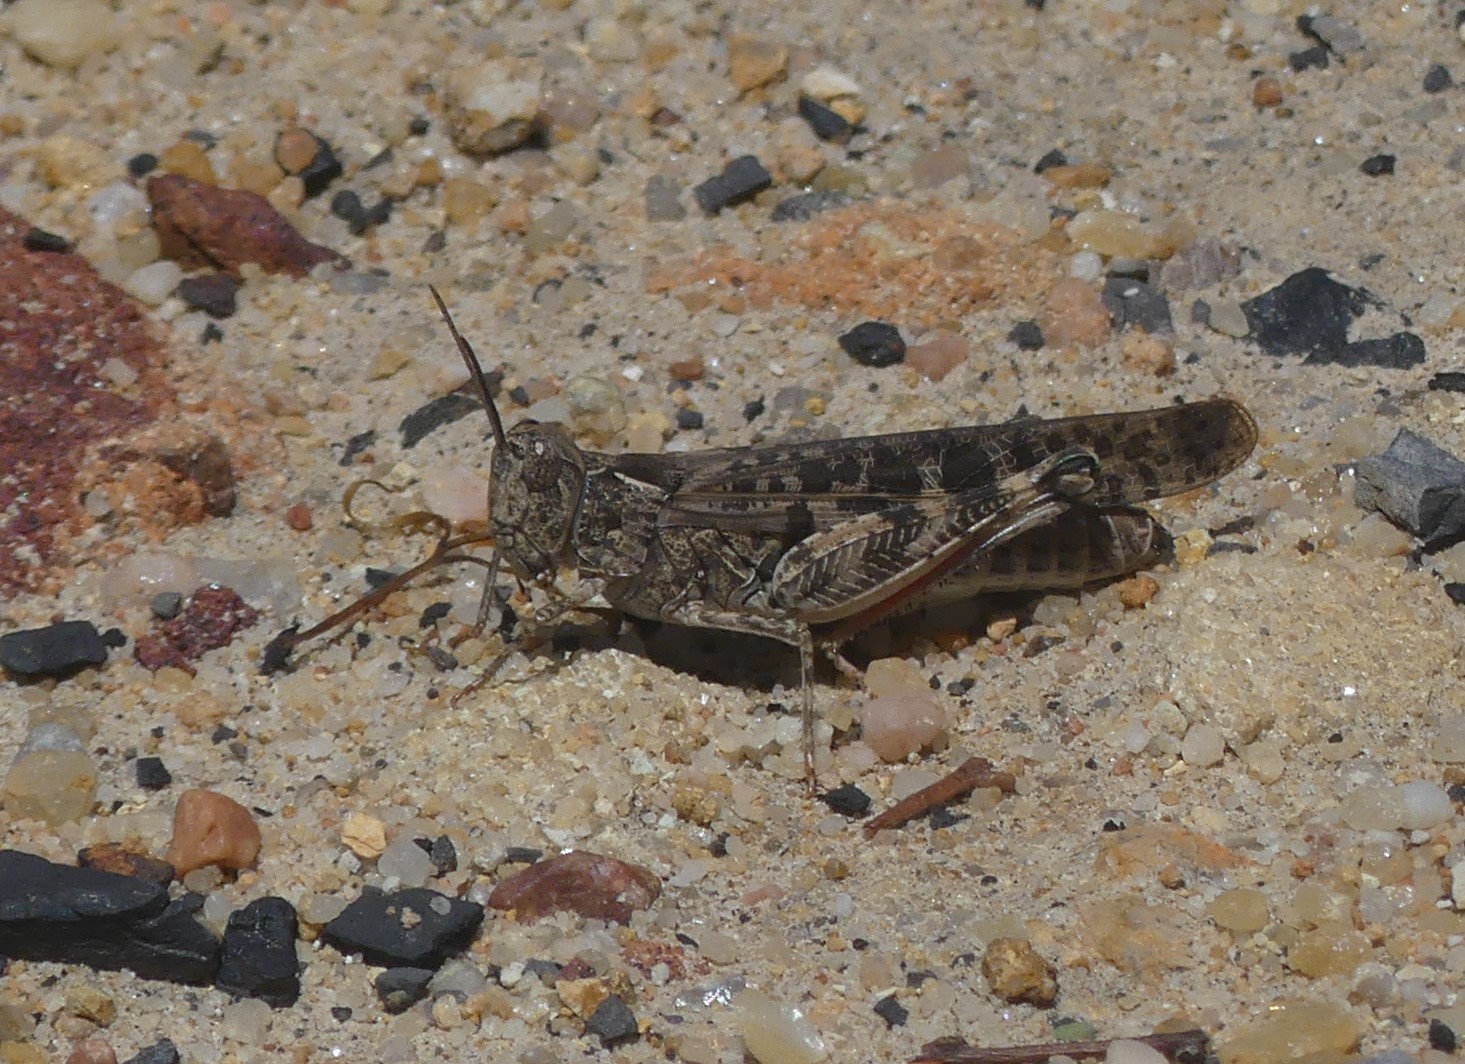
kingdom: Animalia
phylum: Arthropoda
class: Insecta
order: Orthoptera
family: Acrididae
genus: Chortoicetes
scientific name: Chortoicetes terminifera
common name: Australian plague locust
